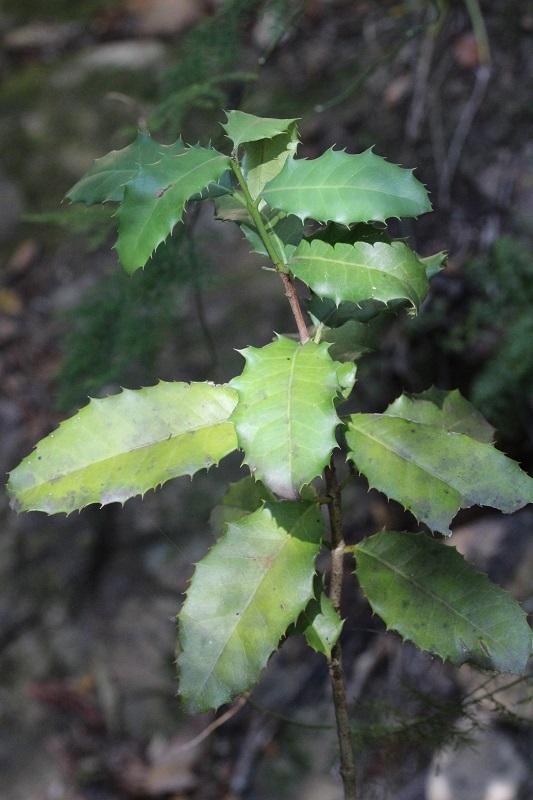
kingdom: Plantae
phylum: Tracheophyta
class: Magnoliopsida
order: Celastrales
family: Celastraceae
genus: Elaeodendron
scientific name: Elaeodendron croceum
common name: Saffron
